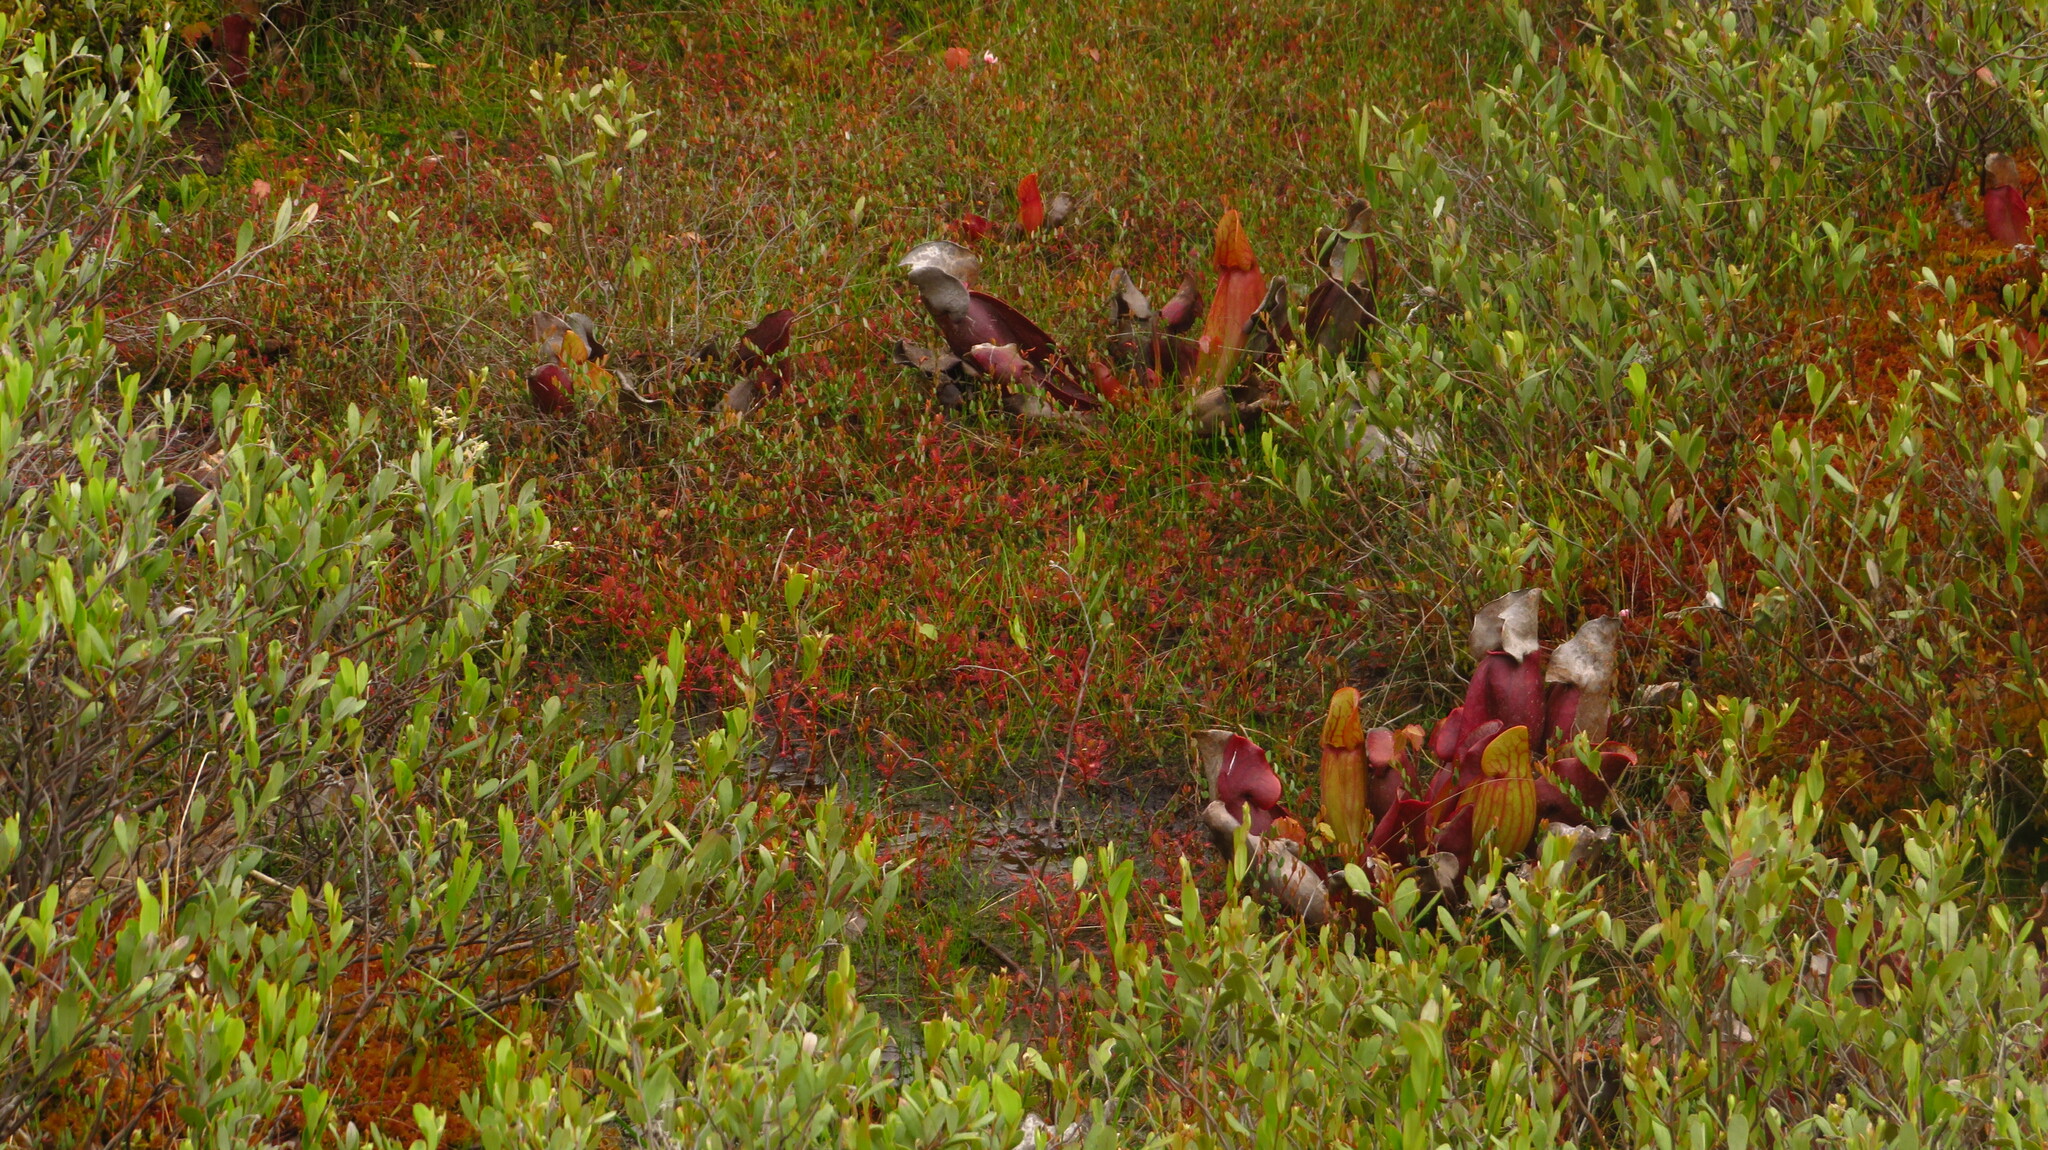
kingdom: Plantae
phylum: Tracheophyta
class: Magnoliopsida
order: Caryophyllales
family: Droseraceae
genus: Drosera
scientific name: Drosera intermedia
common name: Oblong-leaved sundew
